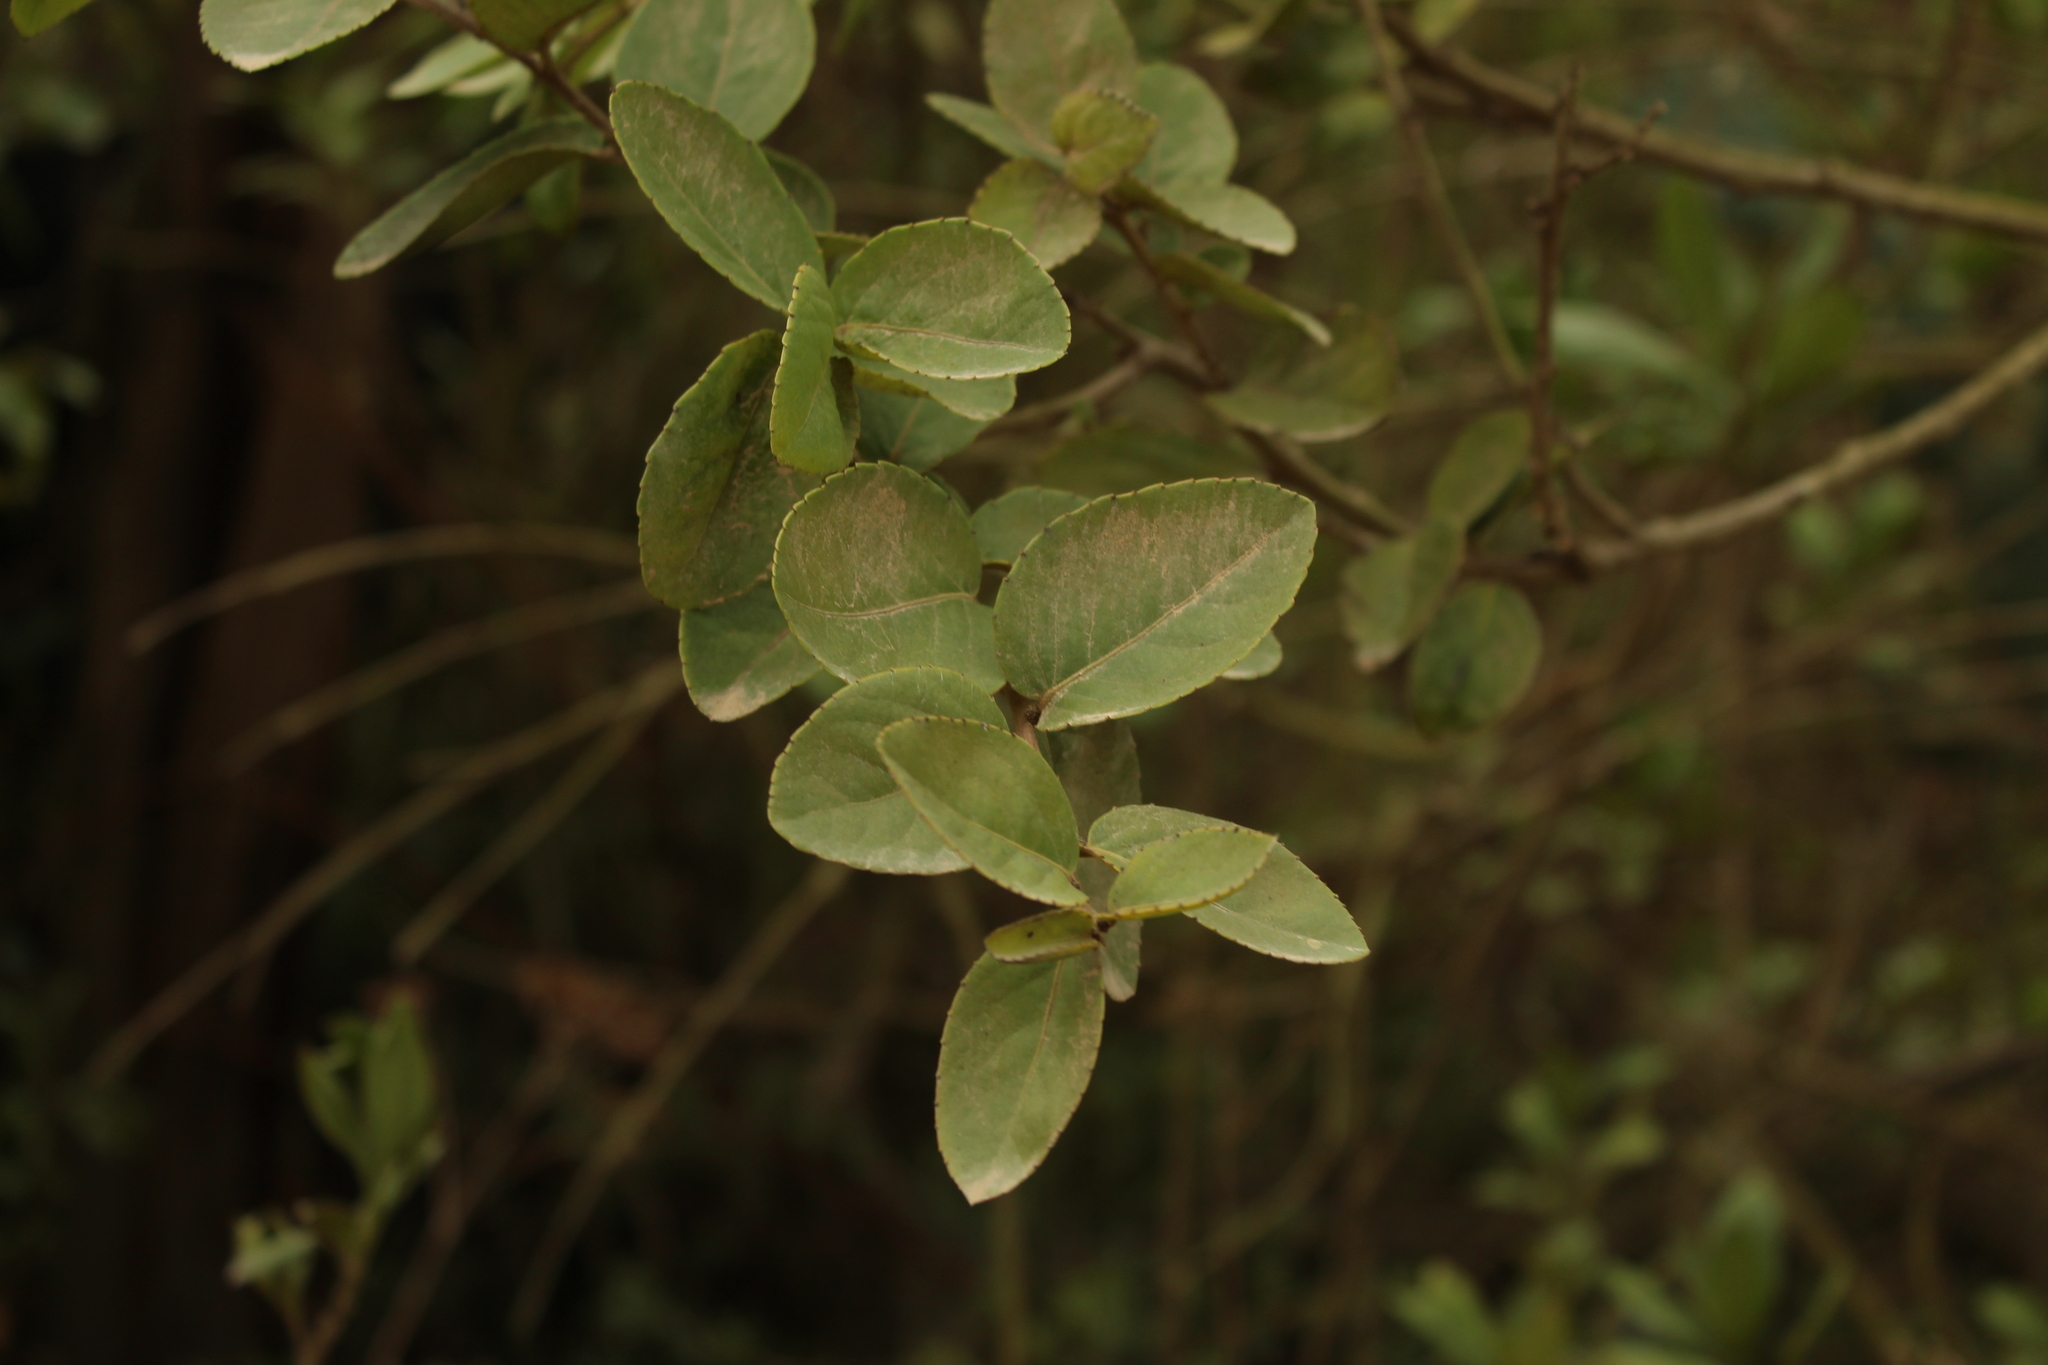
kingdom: Plantae
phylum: Tracheophyta
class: Magnoliopsida
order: Malpighiales
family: Salicaceae
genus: Xylosma
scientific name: Xylosma spiculifera
